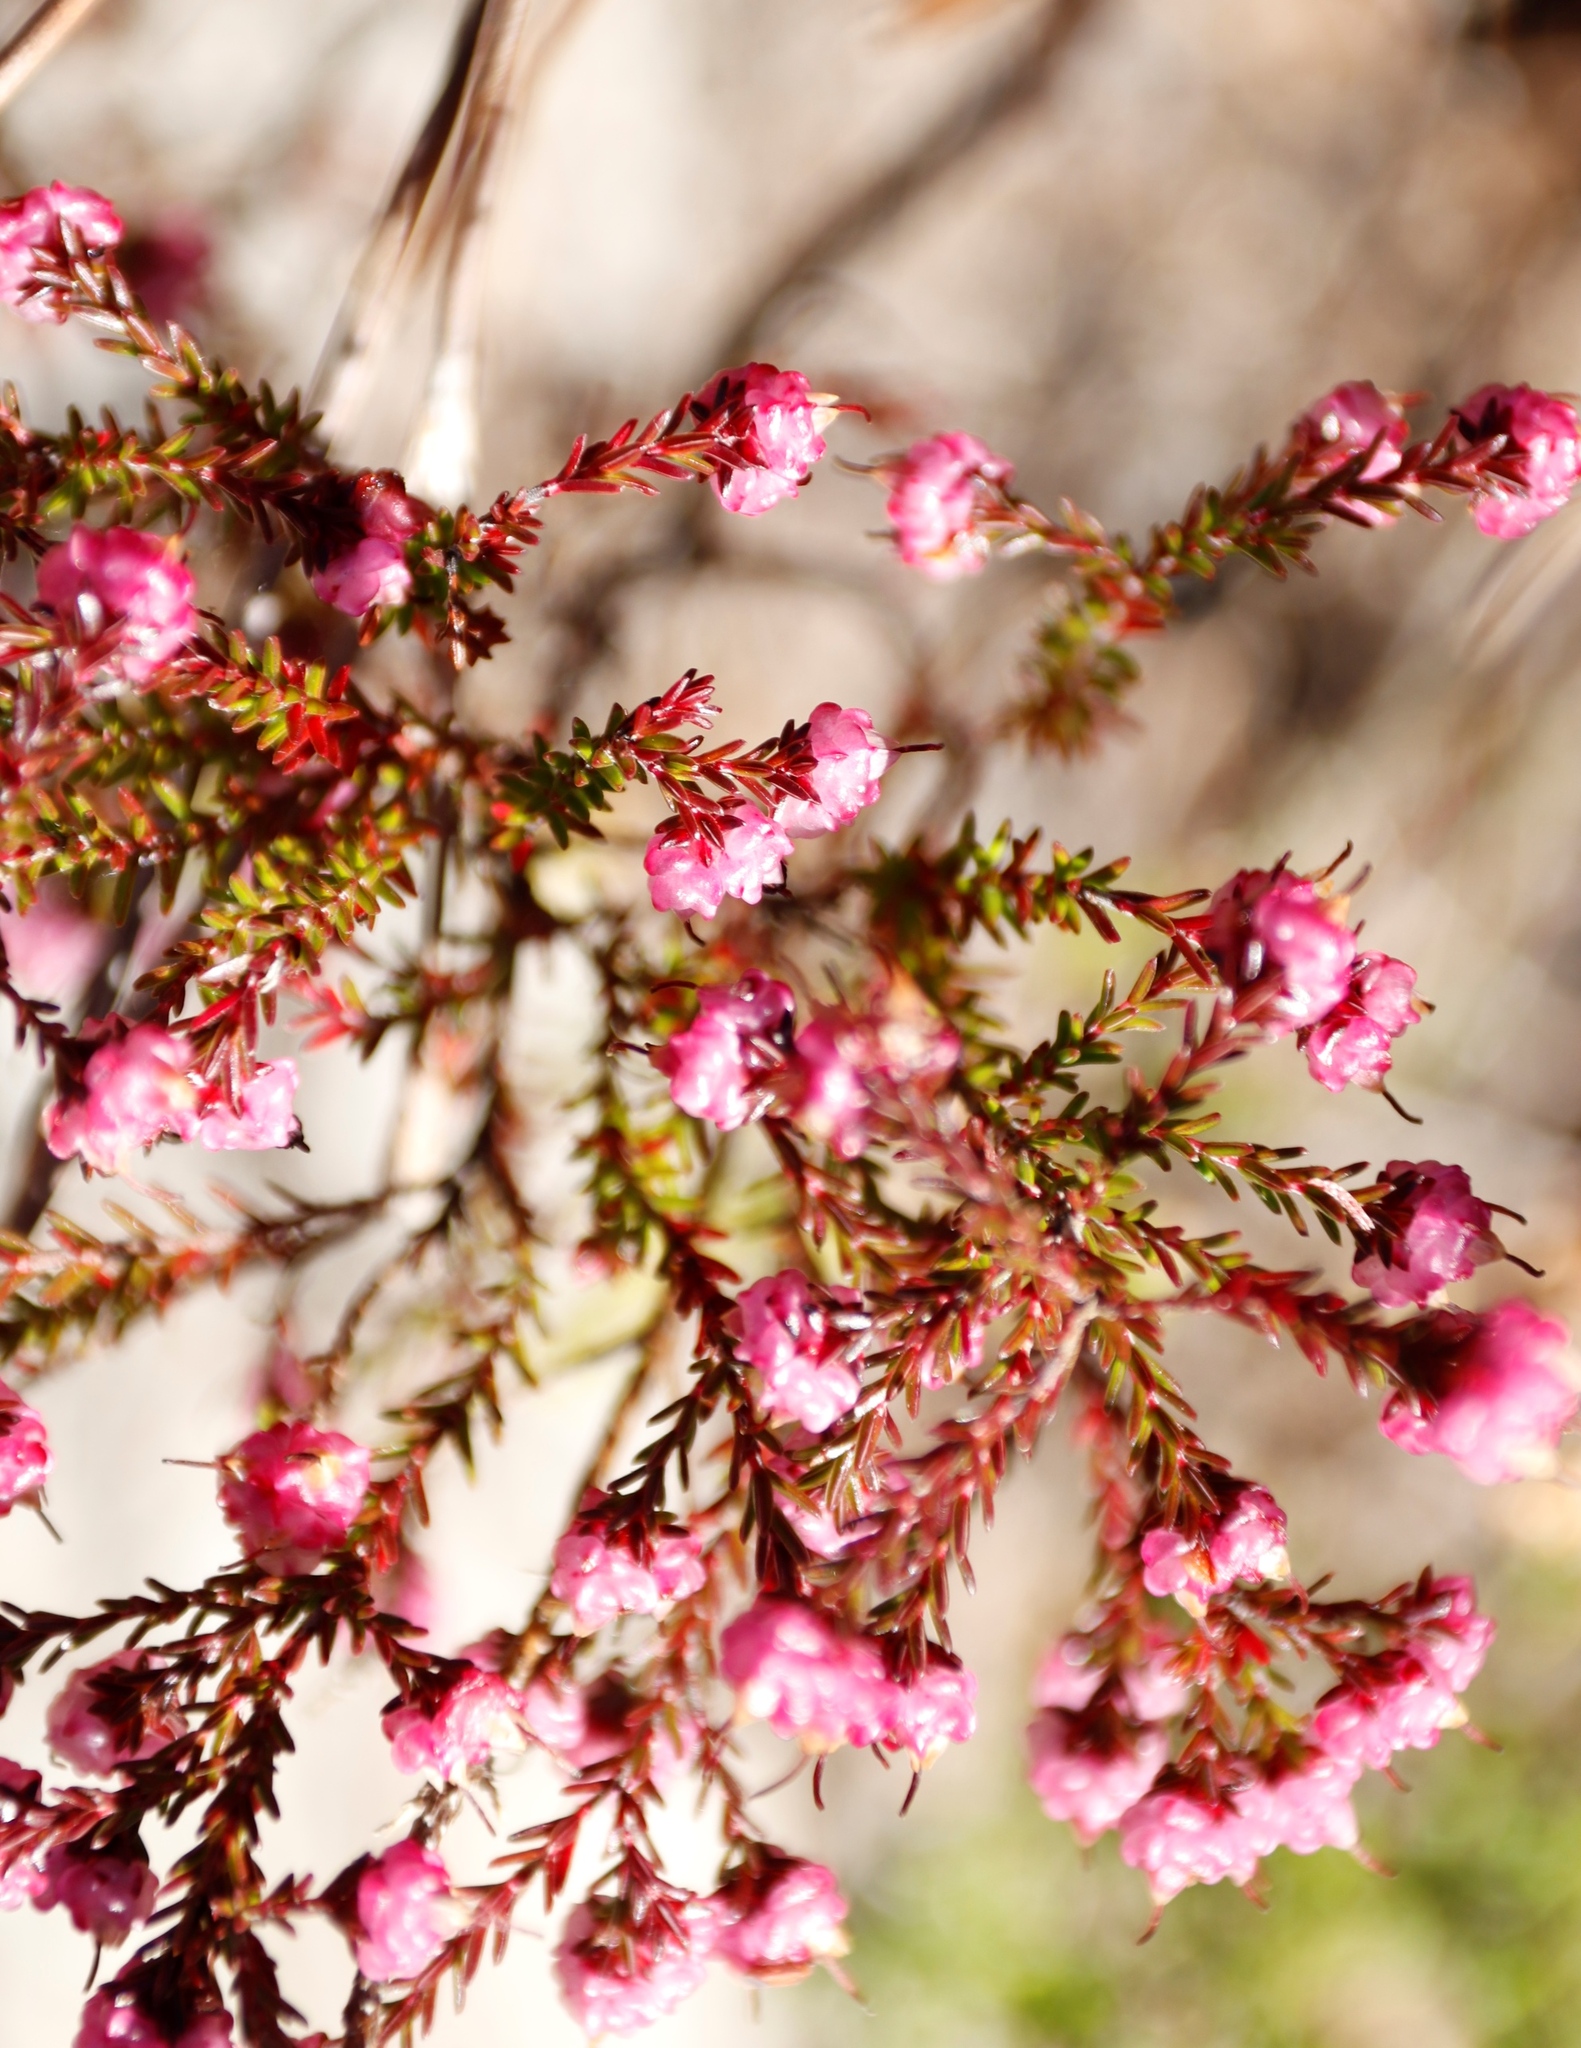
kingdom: Plantae
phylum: Tracheophyta
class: Magnoliopsida
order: Ericales
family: Ericaceae
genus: Erica
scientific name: Erica spumosa
